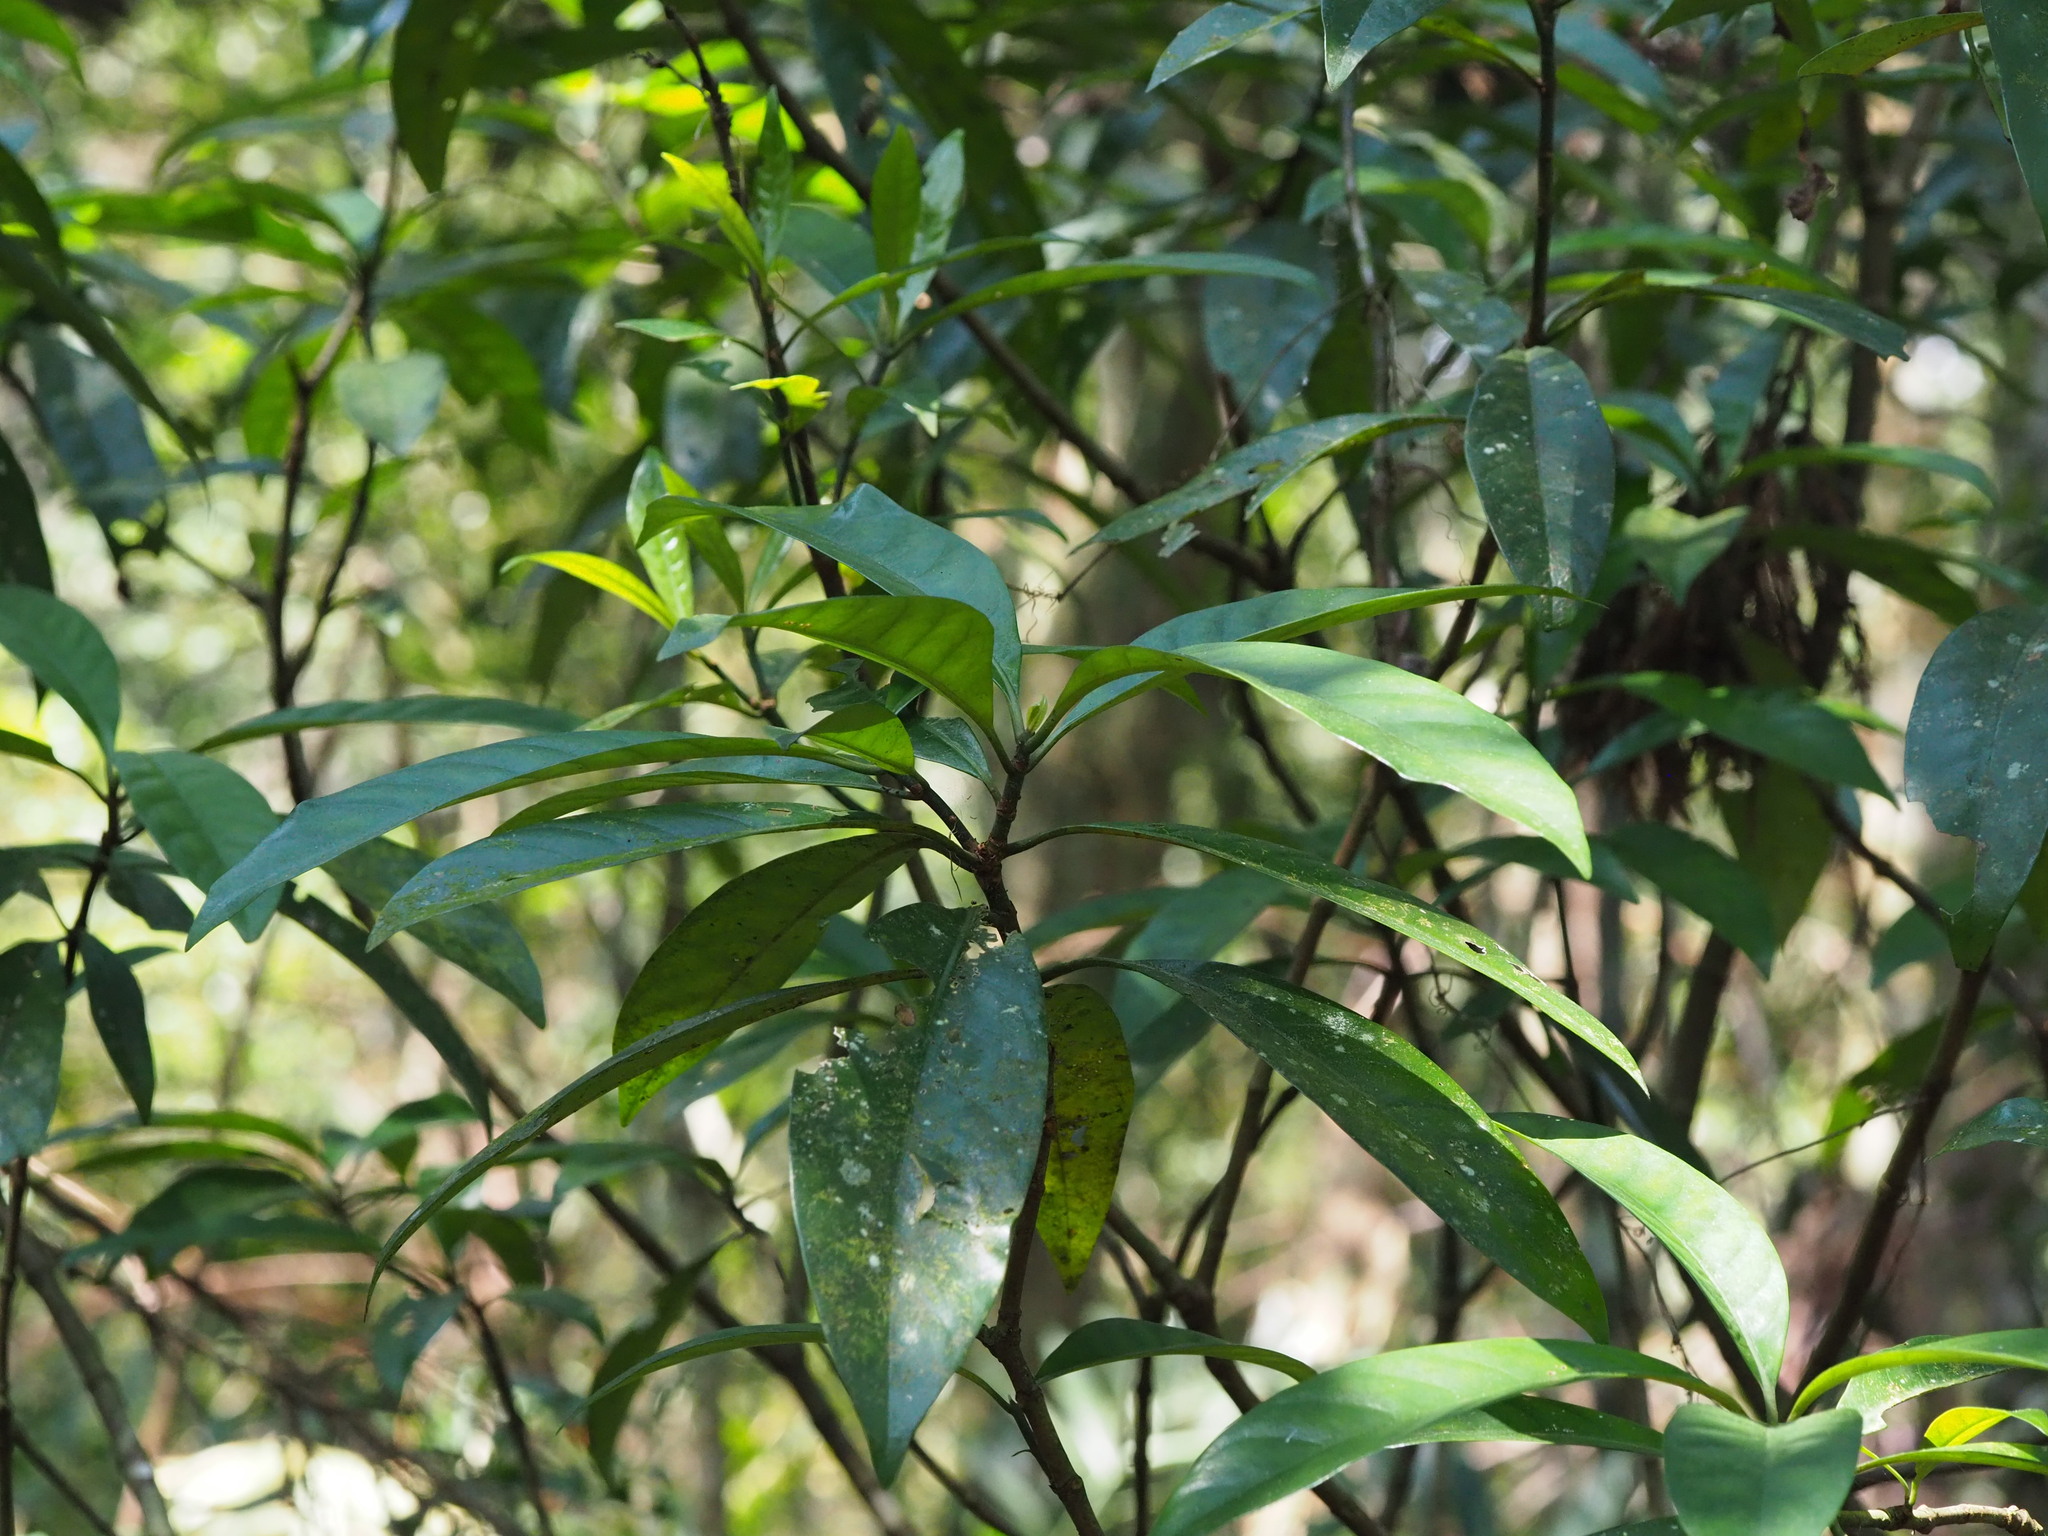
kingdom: Plantae
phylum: Tracheophyta
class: Magnoliopsida
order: Gentianales
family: Rubiaceae
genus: Psychotria
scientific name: Psychotria asiatica
